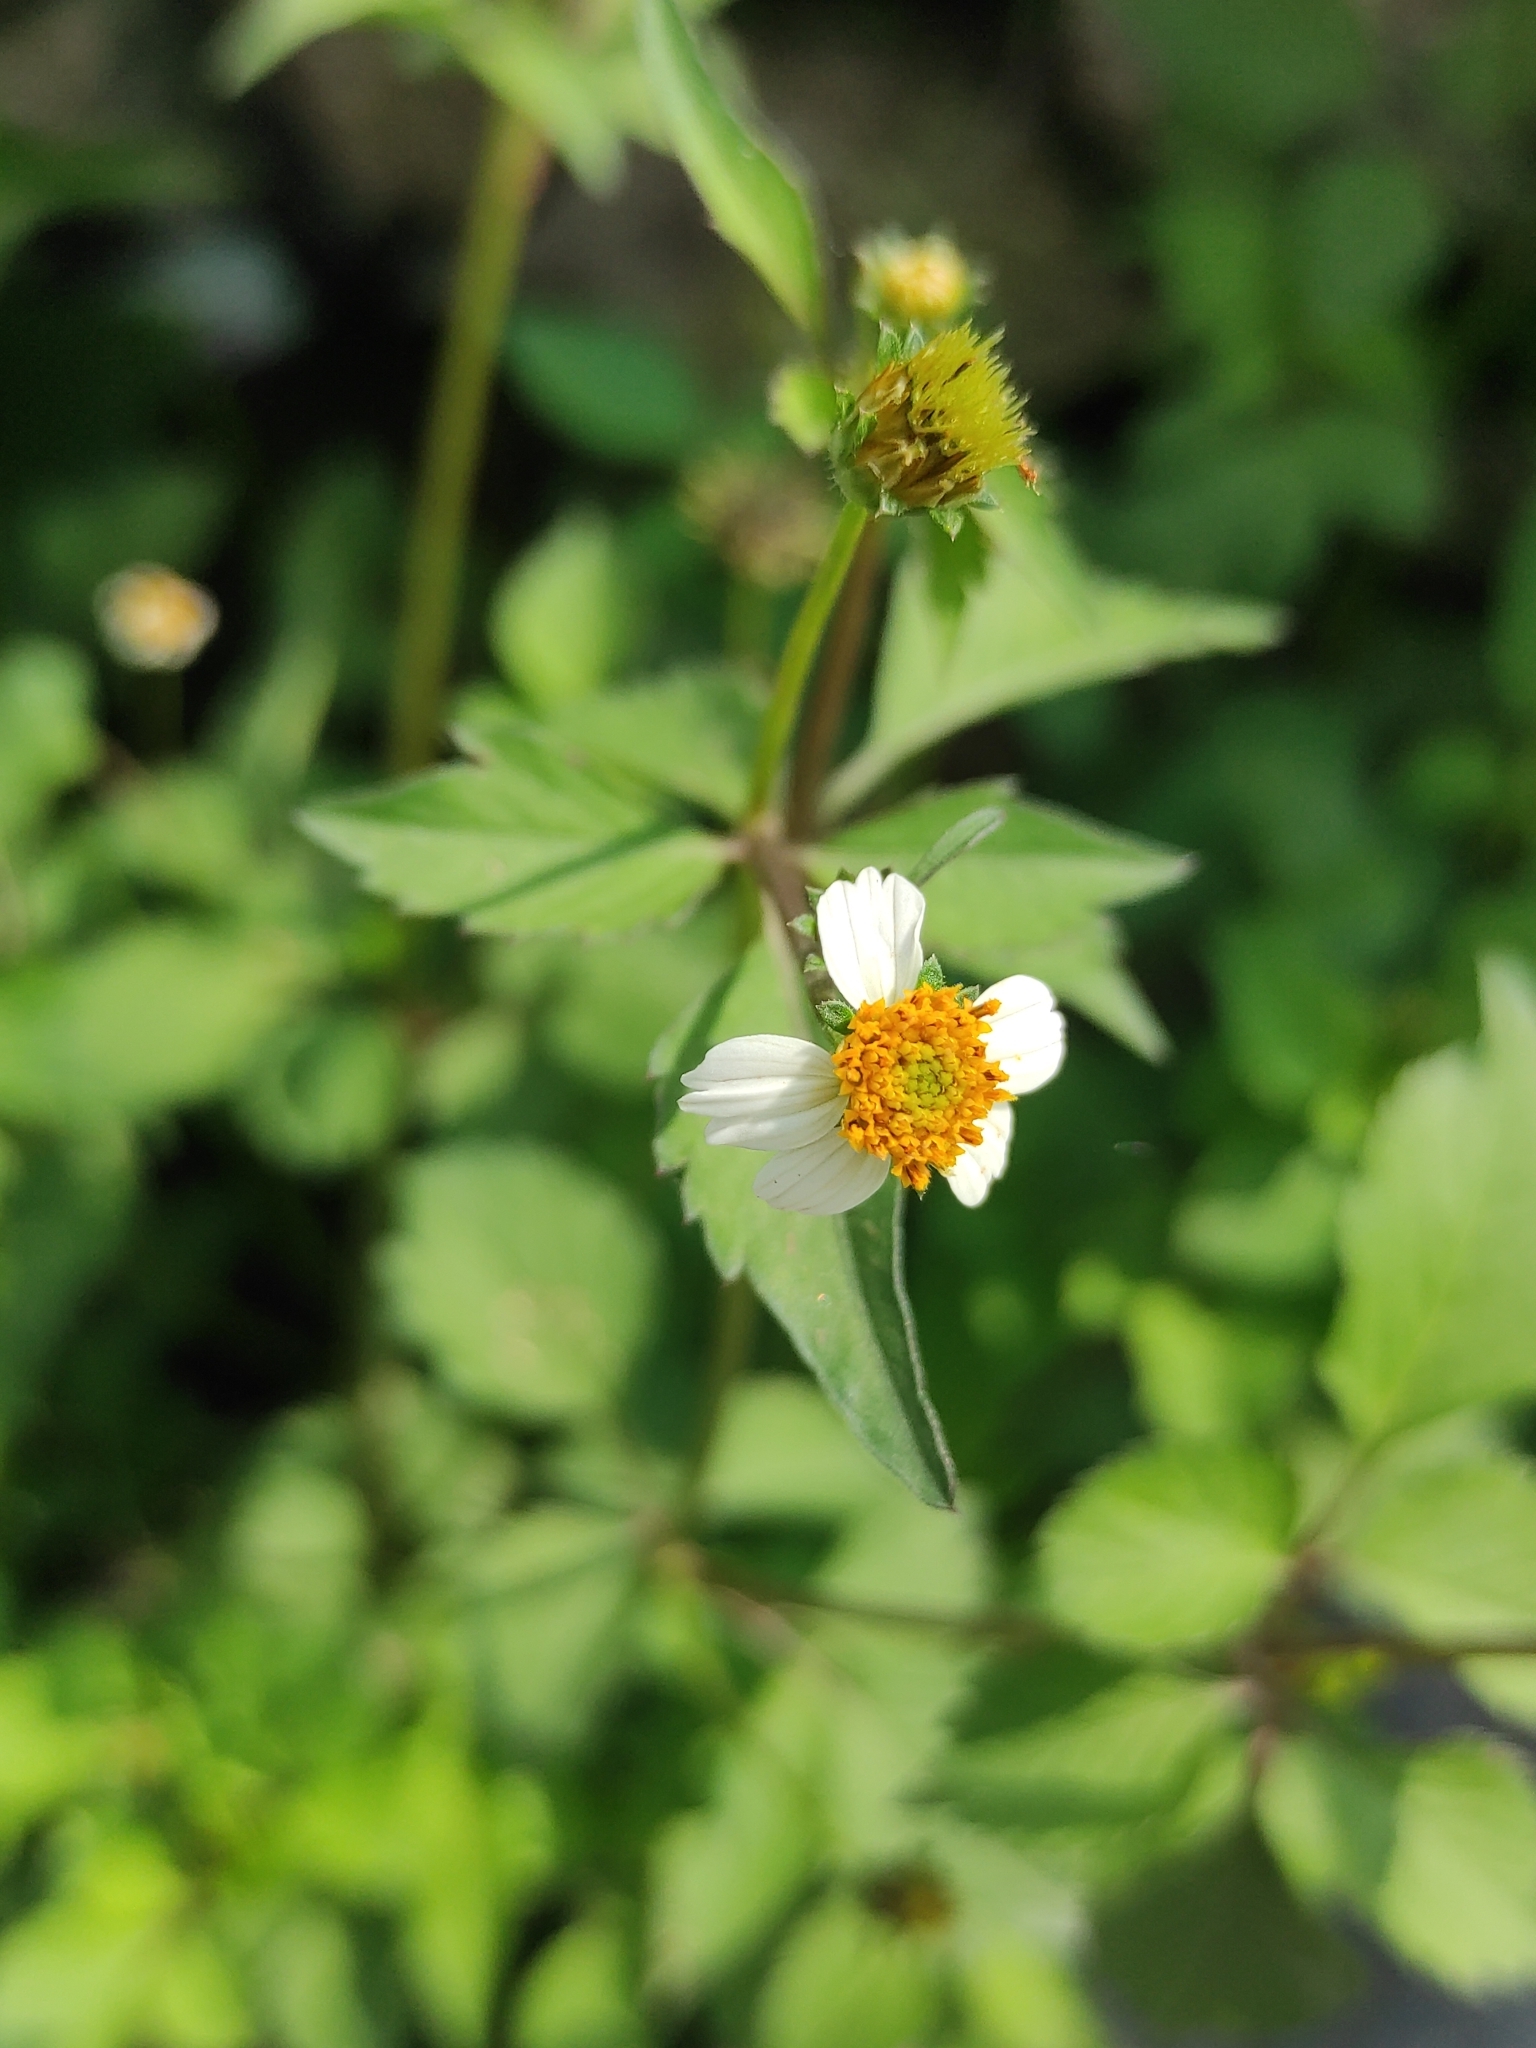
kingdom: Plantae
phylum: Tracheophyta
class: Magnoliopsida
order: Asterales
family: Asteraceae
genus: Bidens
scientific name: Bidens alba
